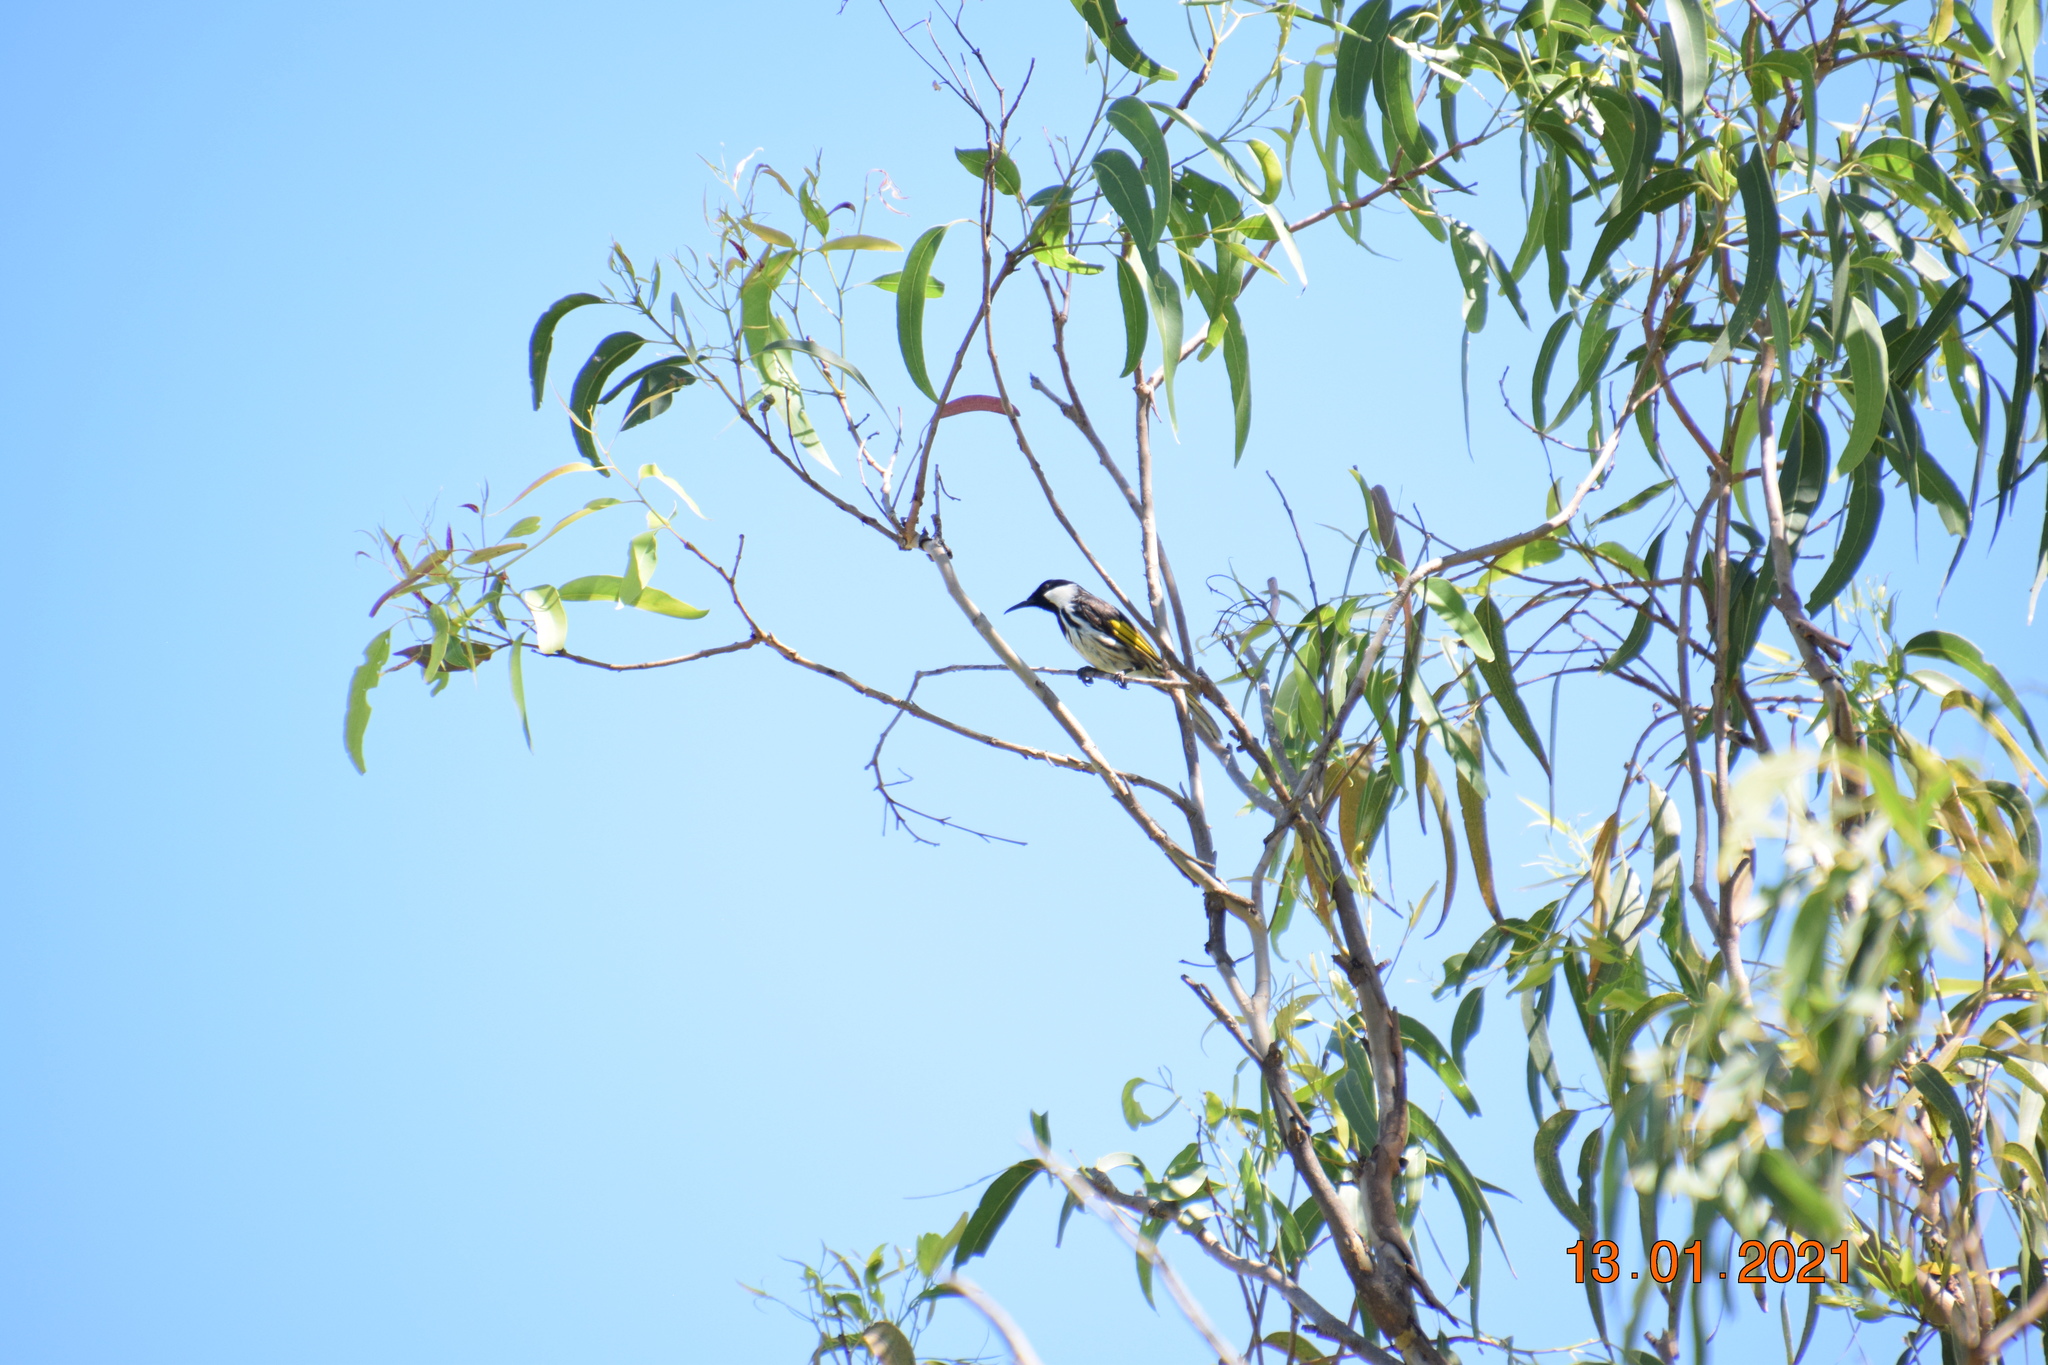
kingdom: Animalia
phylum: Chordata
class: Aves
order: Passeriformes
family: Meliphagidae
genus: Phylidonyris
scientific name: Phylidonyris niger
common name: White-cheeked honeyeater
